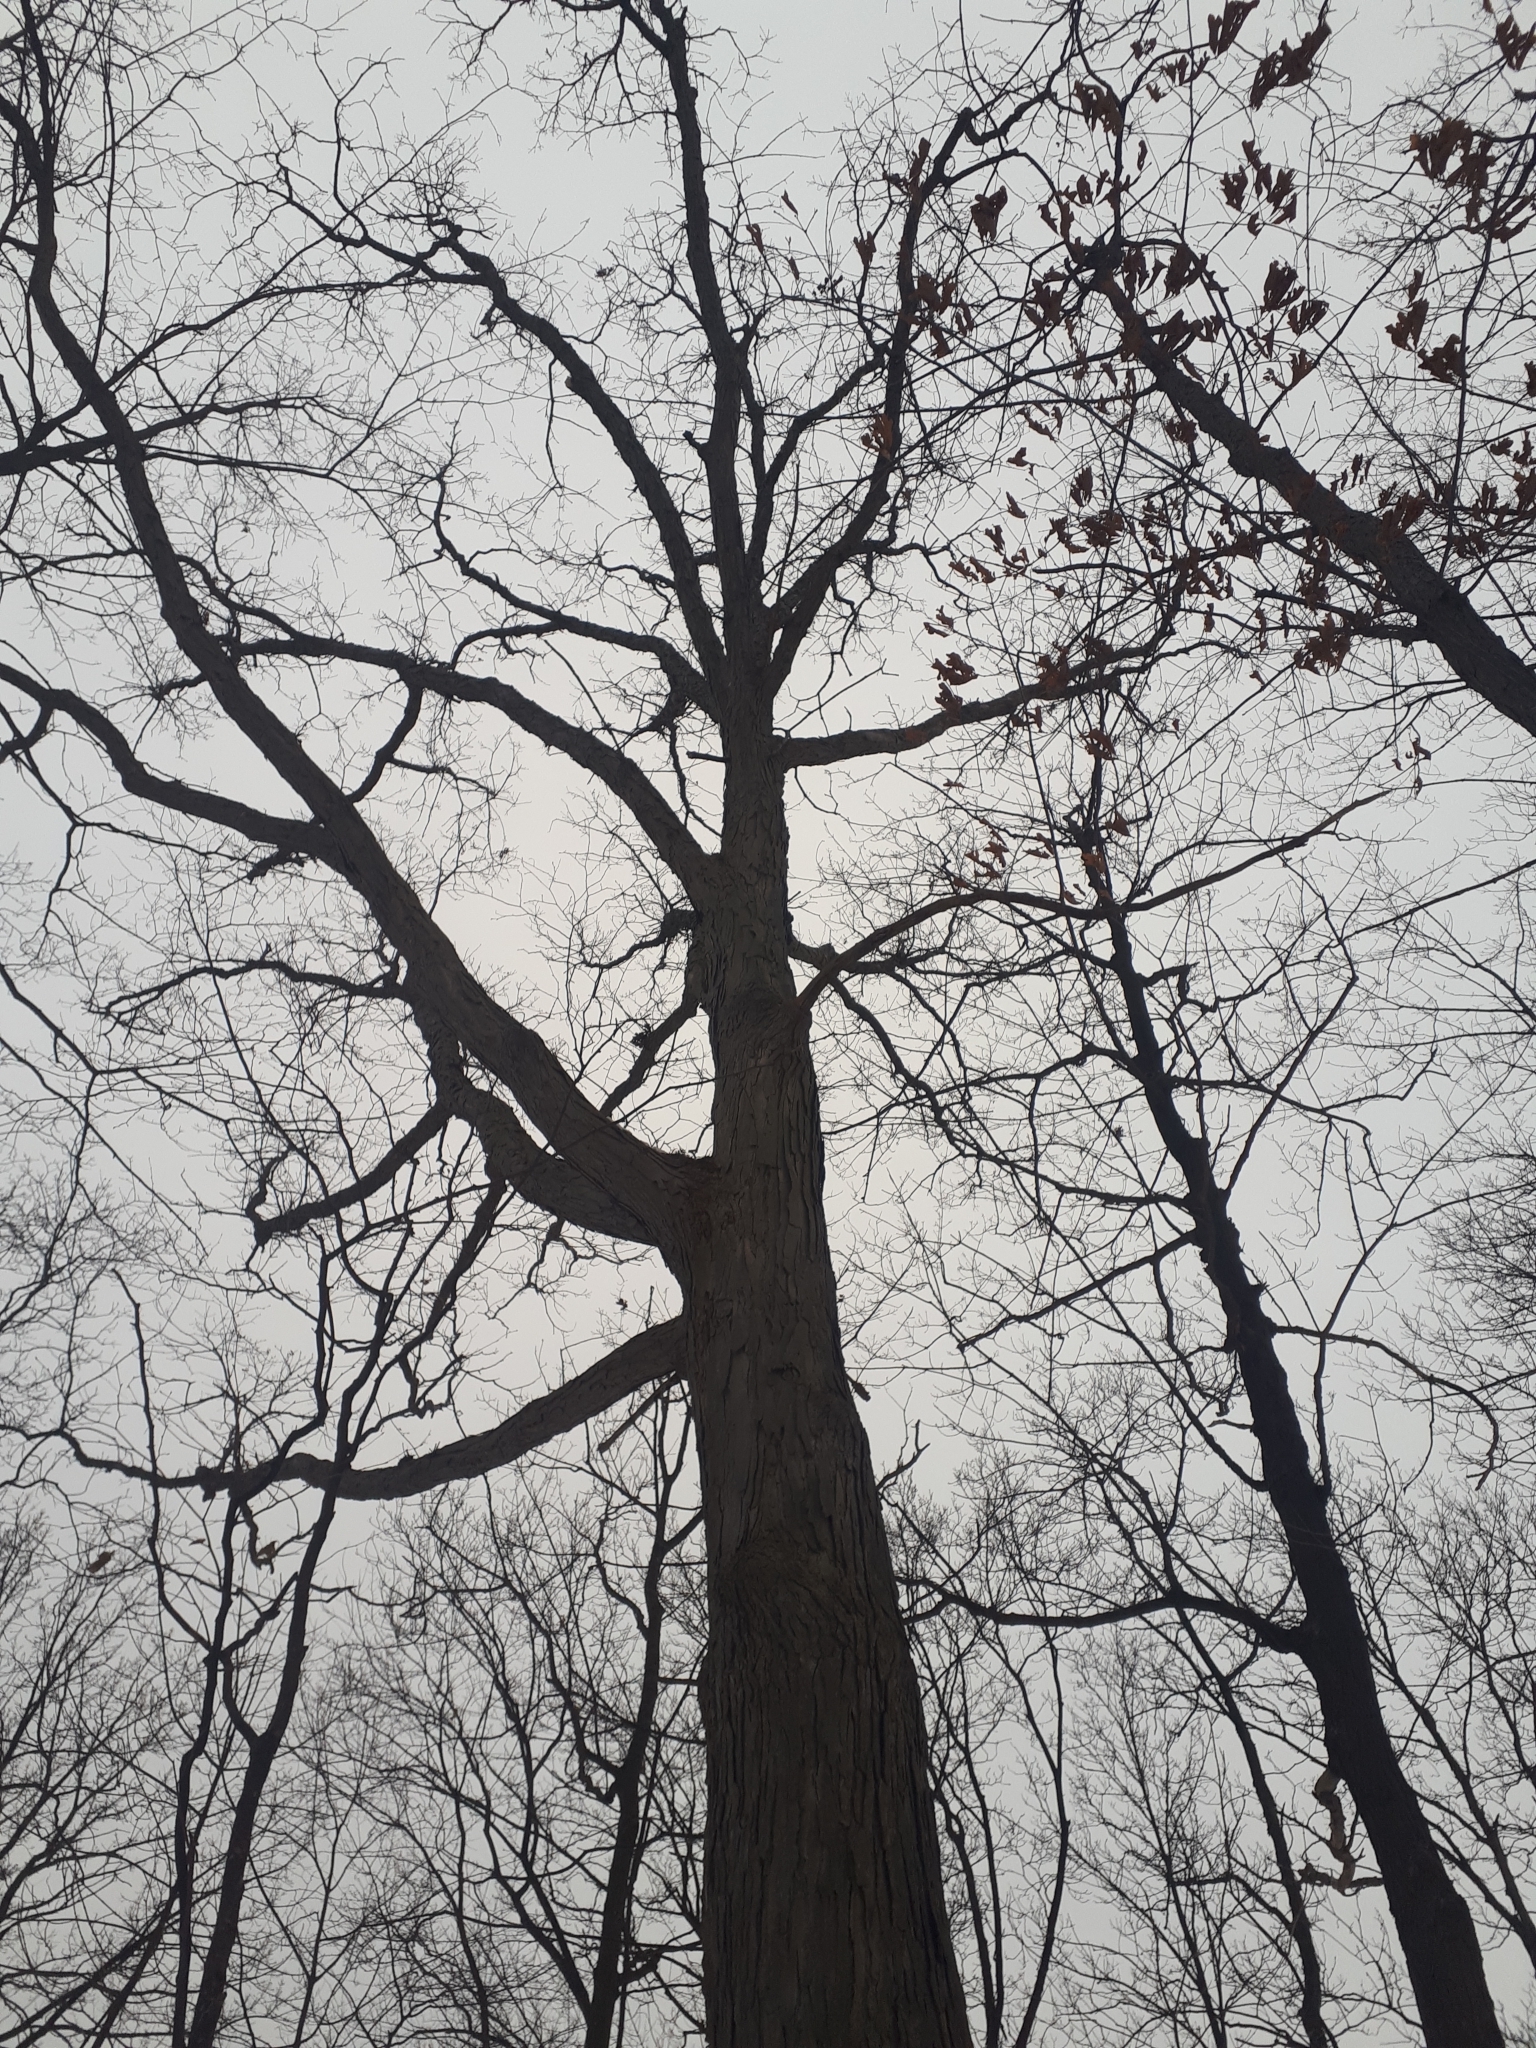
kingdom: Plantae
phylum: Tracheophyta
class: Magnoliopsida
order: Fagales
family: Fagaceae
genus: Quercus
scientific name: Quercus alba
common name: White oak
